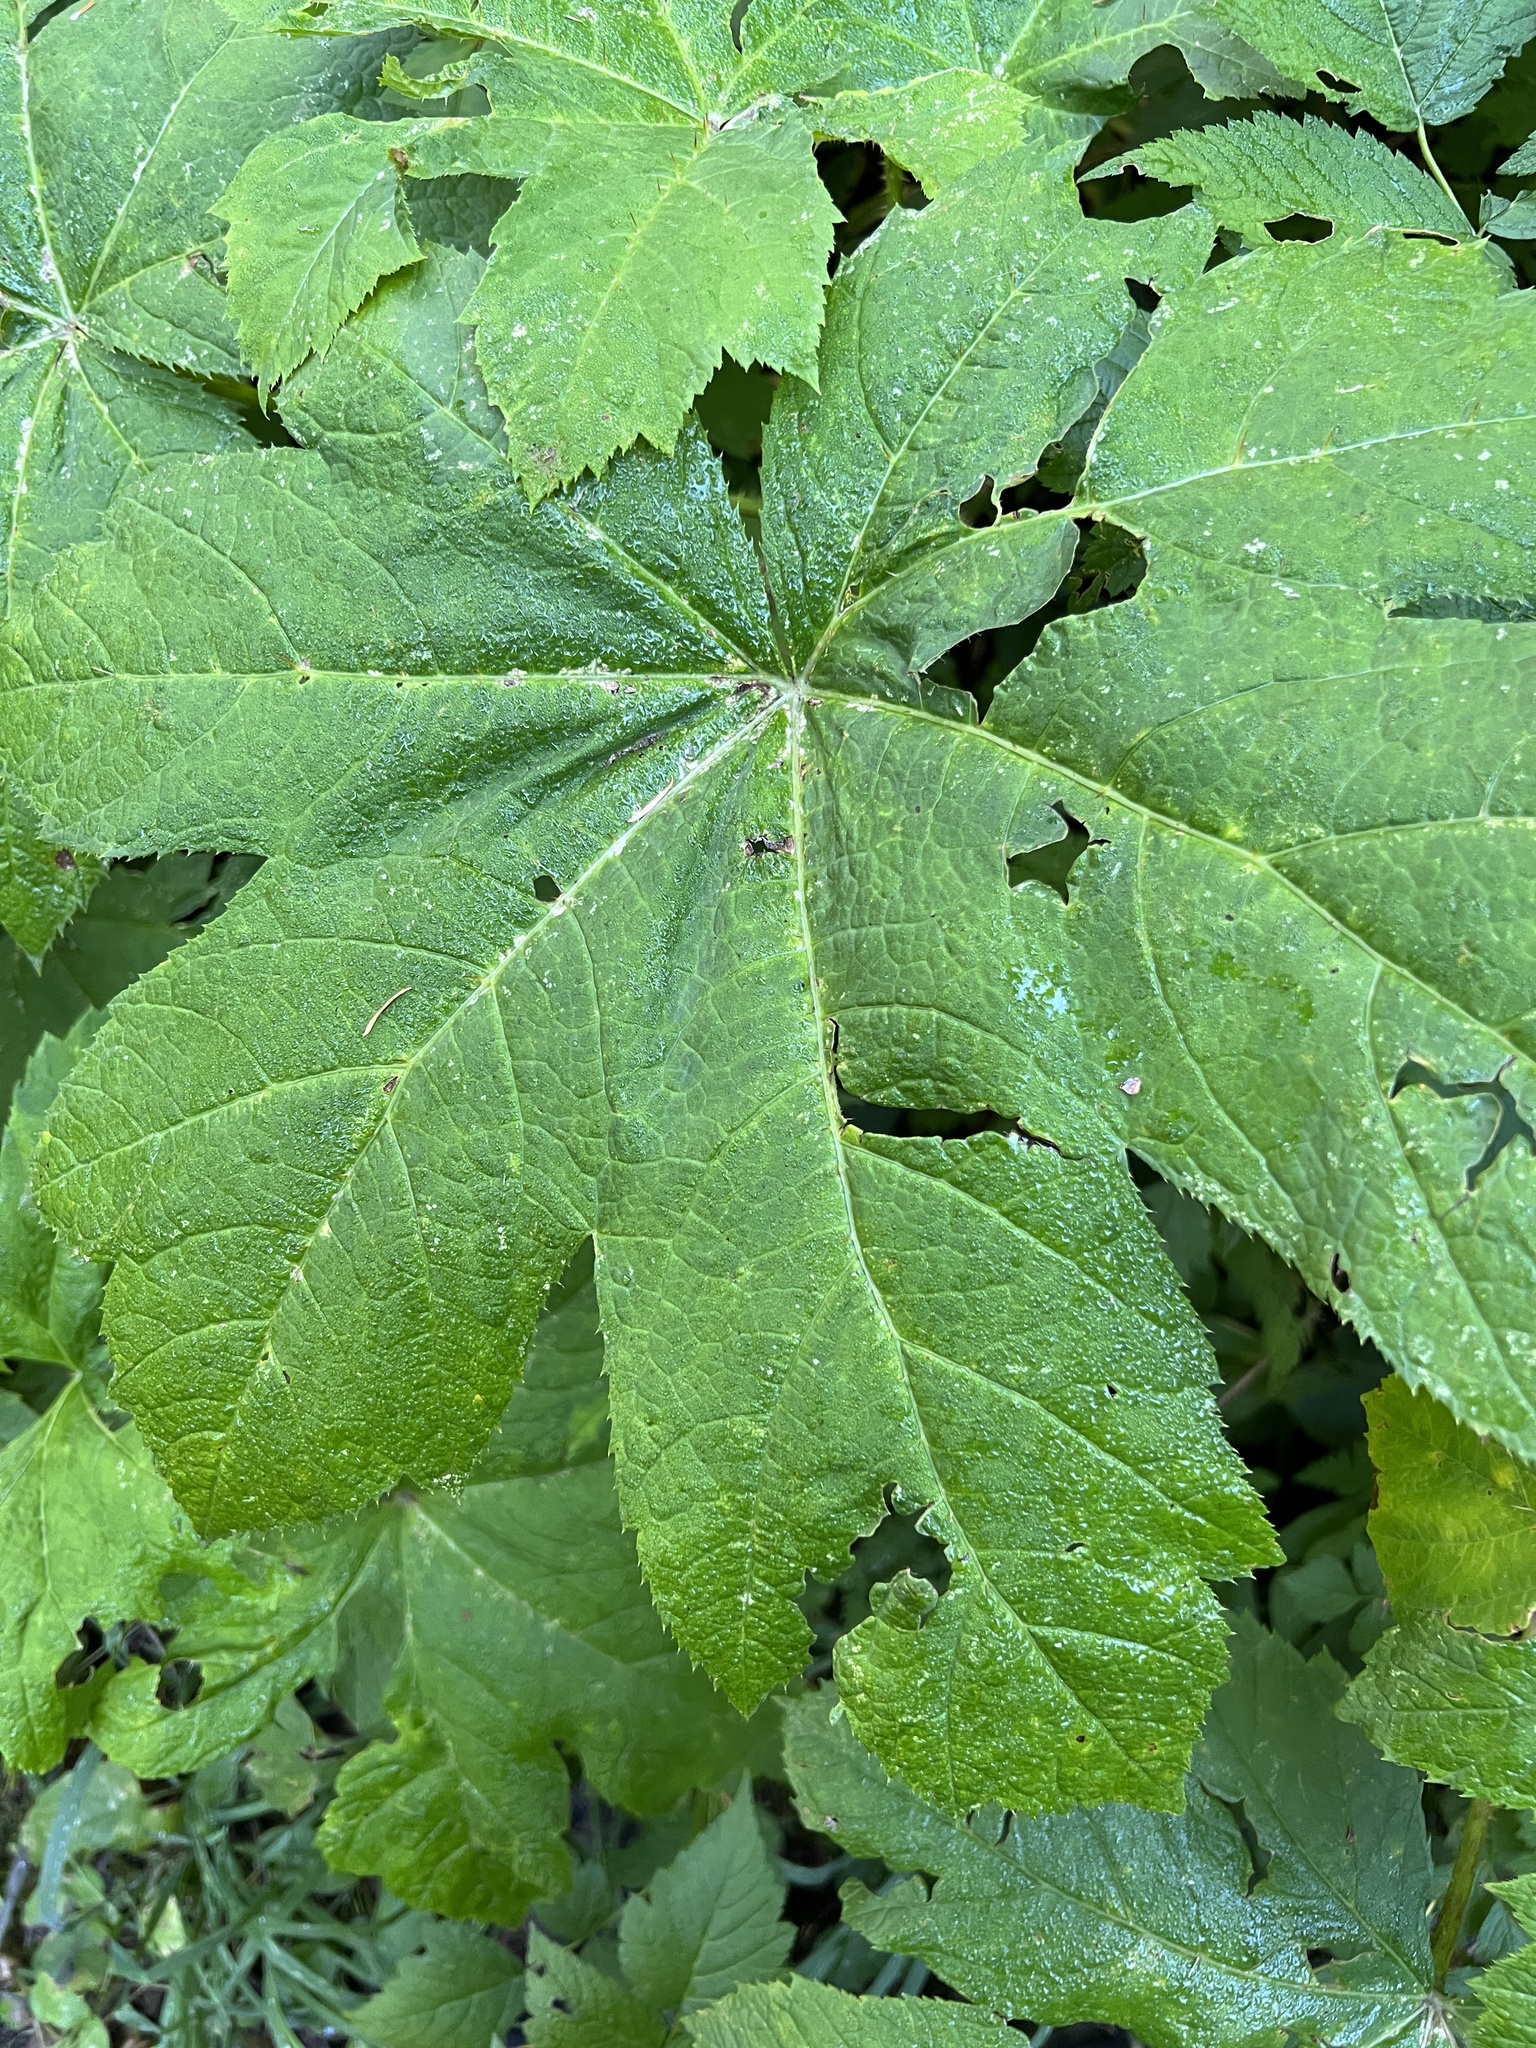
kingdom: Plantae
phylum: Tracheophyta
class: Magnoliopsida
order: Apiales
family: Araliaceae
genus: Oplopanax
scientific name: Oplopanax horridus
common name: Devil's walking-stick
